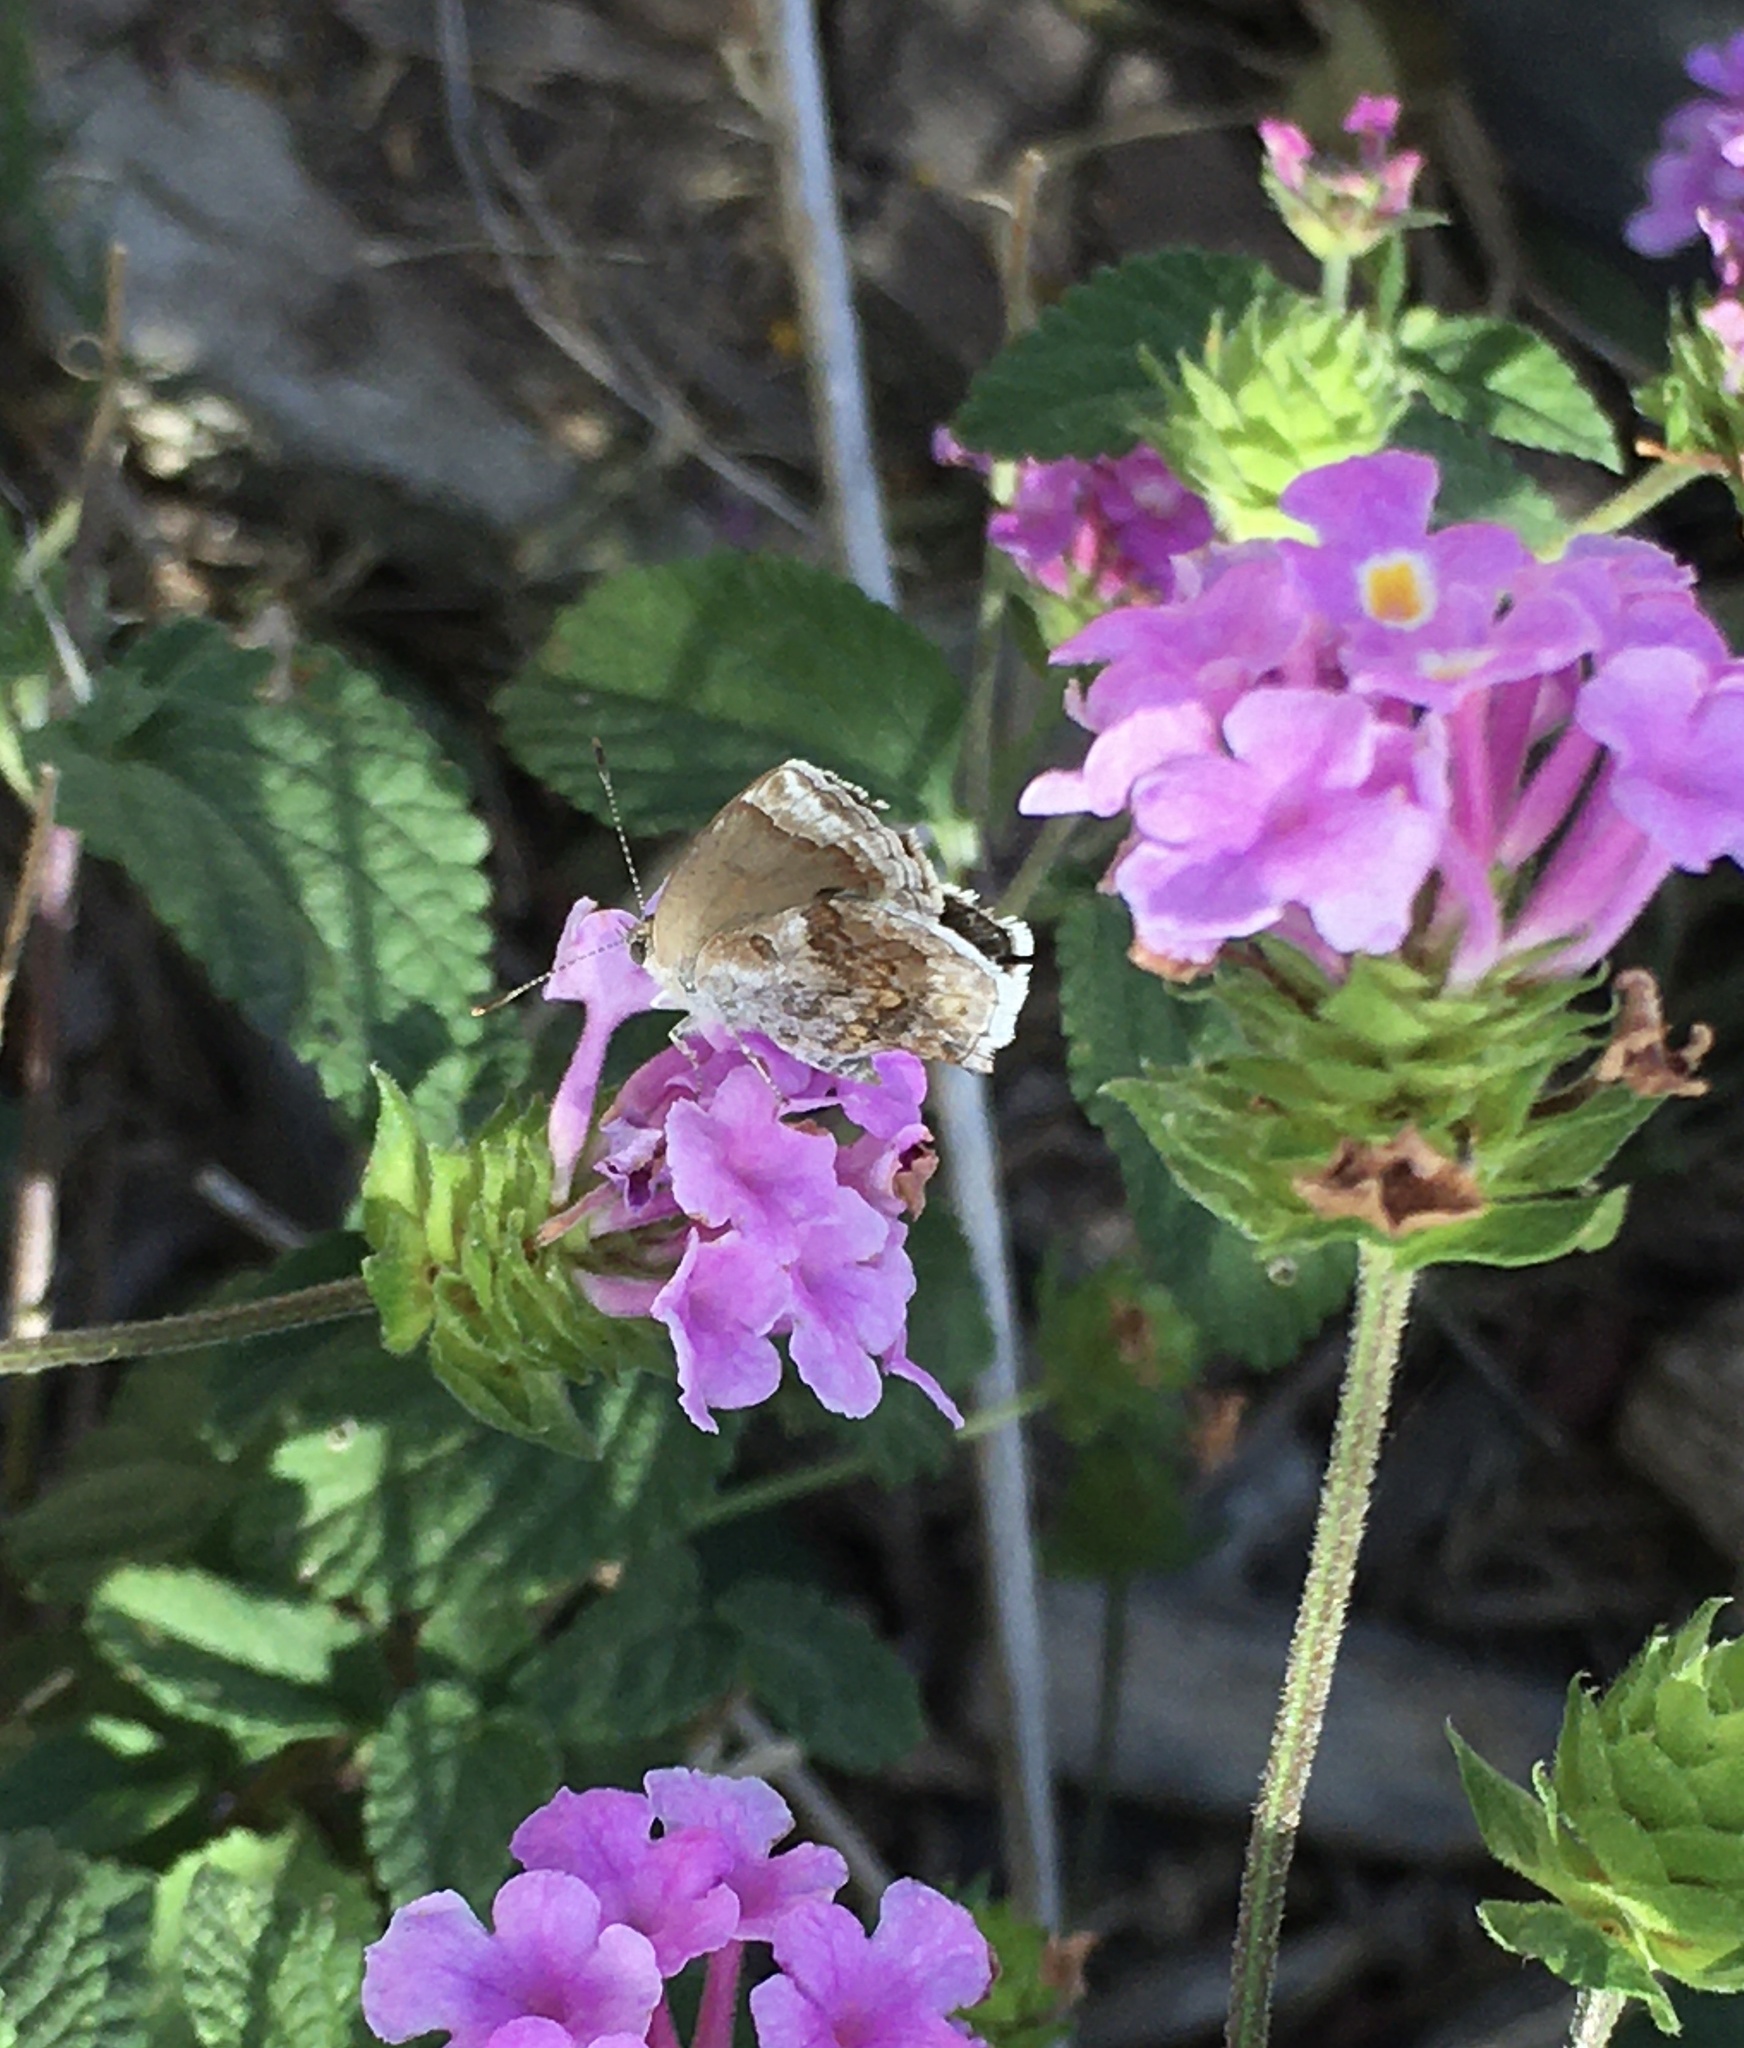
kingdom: Animalia
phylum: Arthropoda
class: Insecta
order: Lepidoptera
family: Lycaenidae
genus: Strymon
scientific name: Strymon bazochii
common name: Lantana scrub-hairstreak
